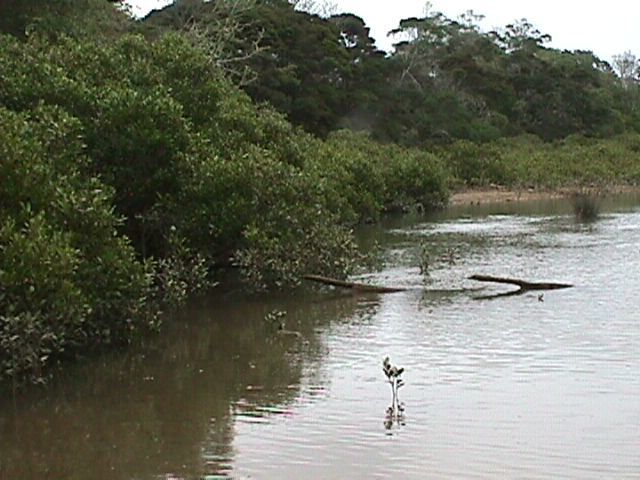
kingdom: Plantae
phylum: Tracheophyta
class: Magnoliopsida
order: Lamiales
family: Acanthaceae
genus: Avicennia
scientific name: Avicennia marina
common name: Gray mangrove
